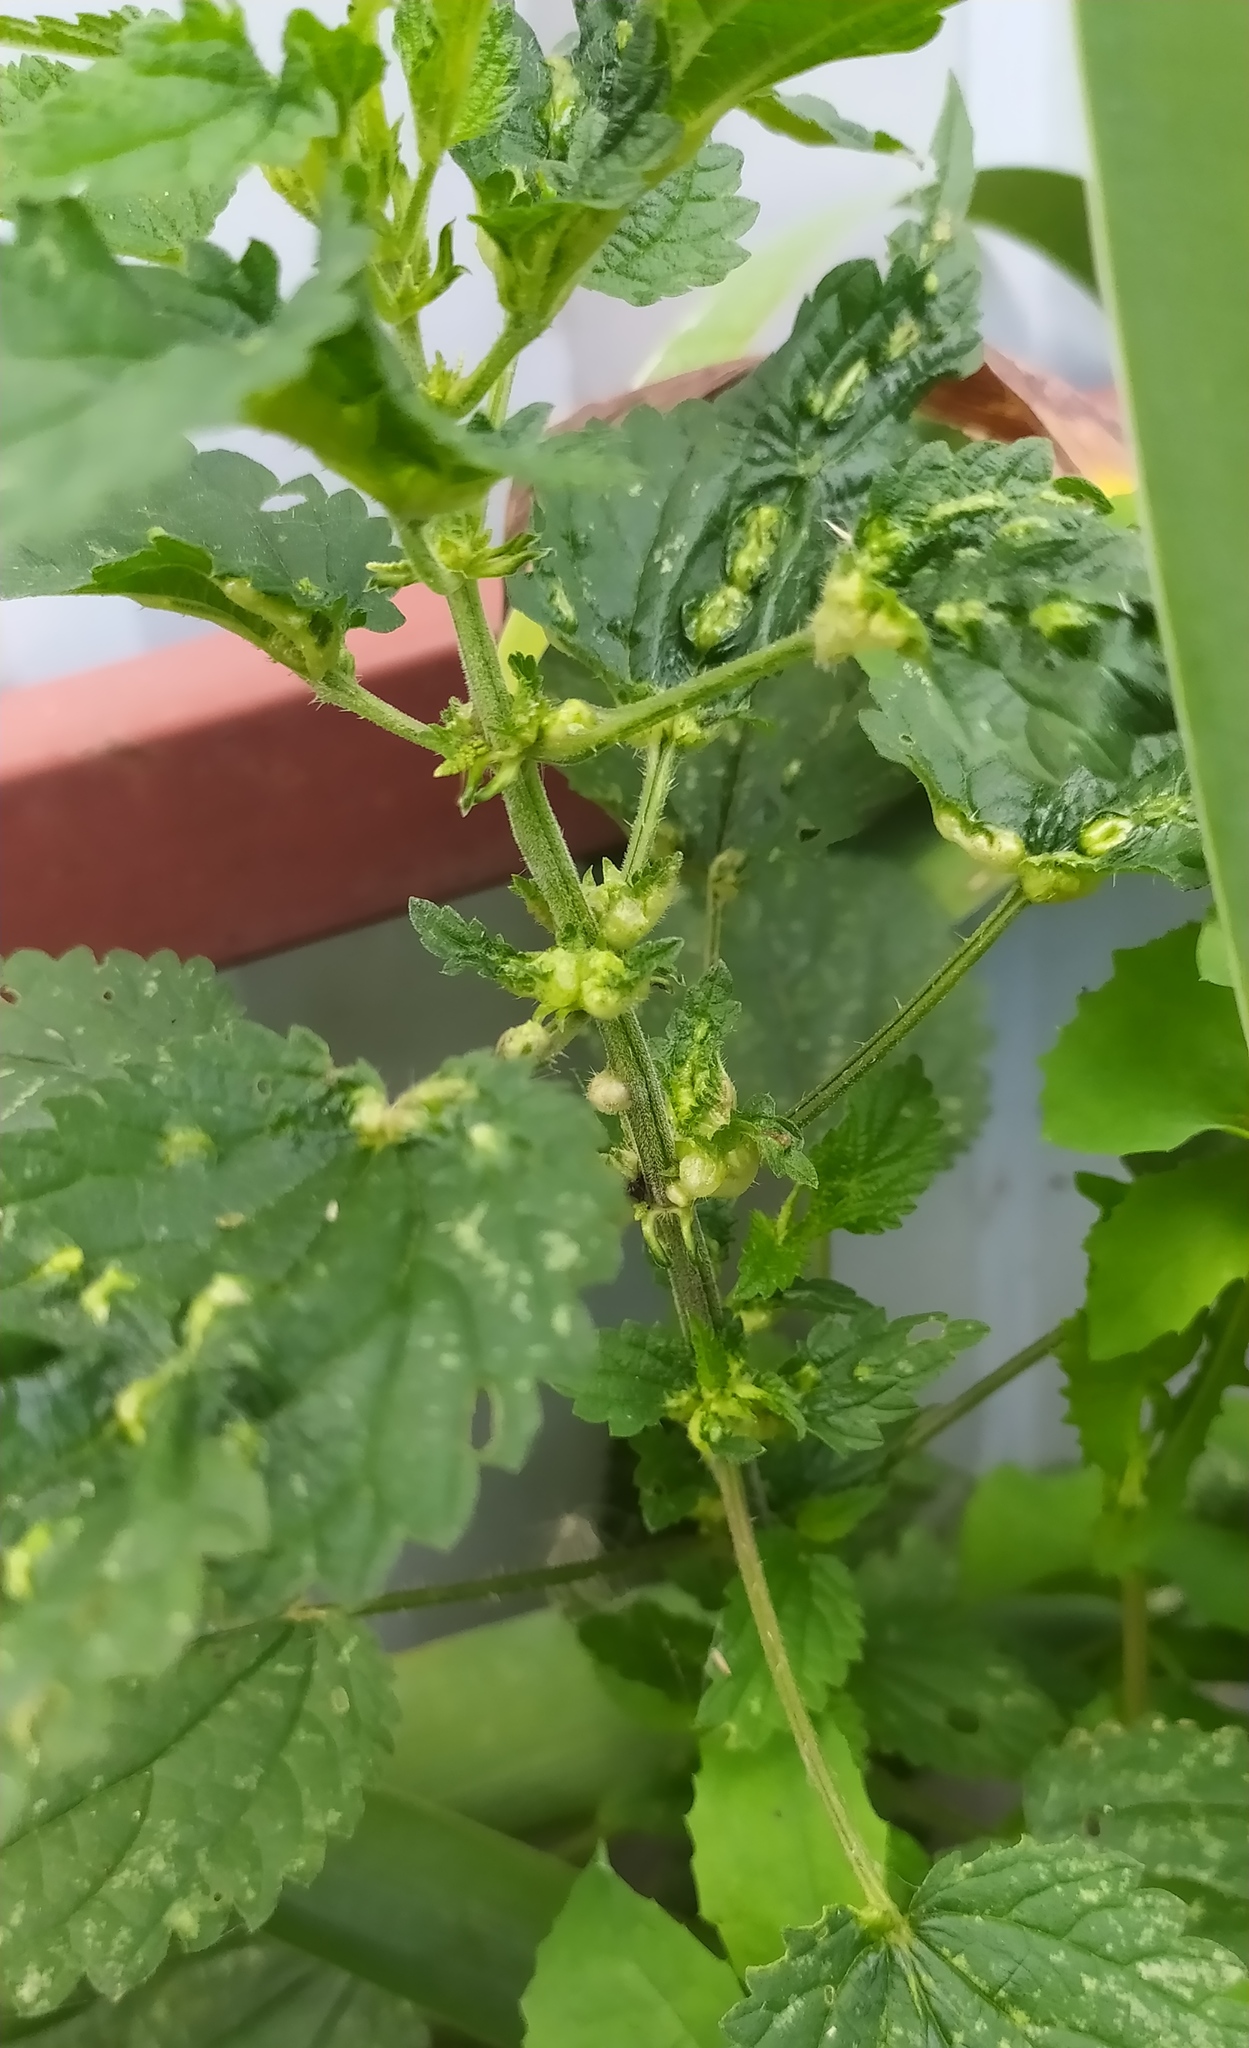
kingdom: Animalia
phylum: Arthropoda
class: Insecta
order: Diptera
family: Cecidomyiidae
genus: Dasineura
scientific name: Dasineura urticae
